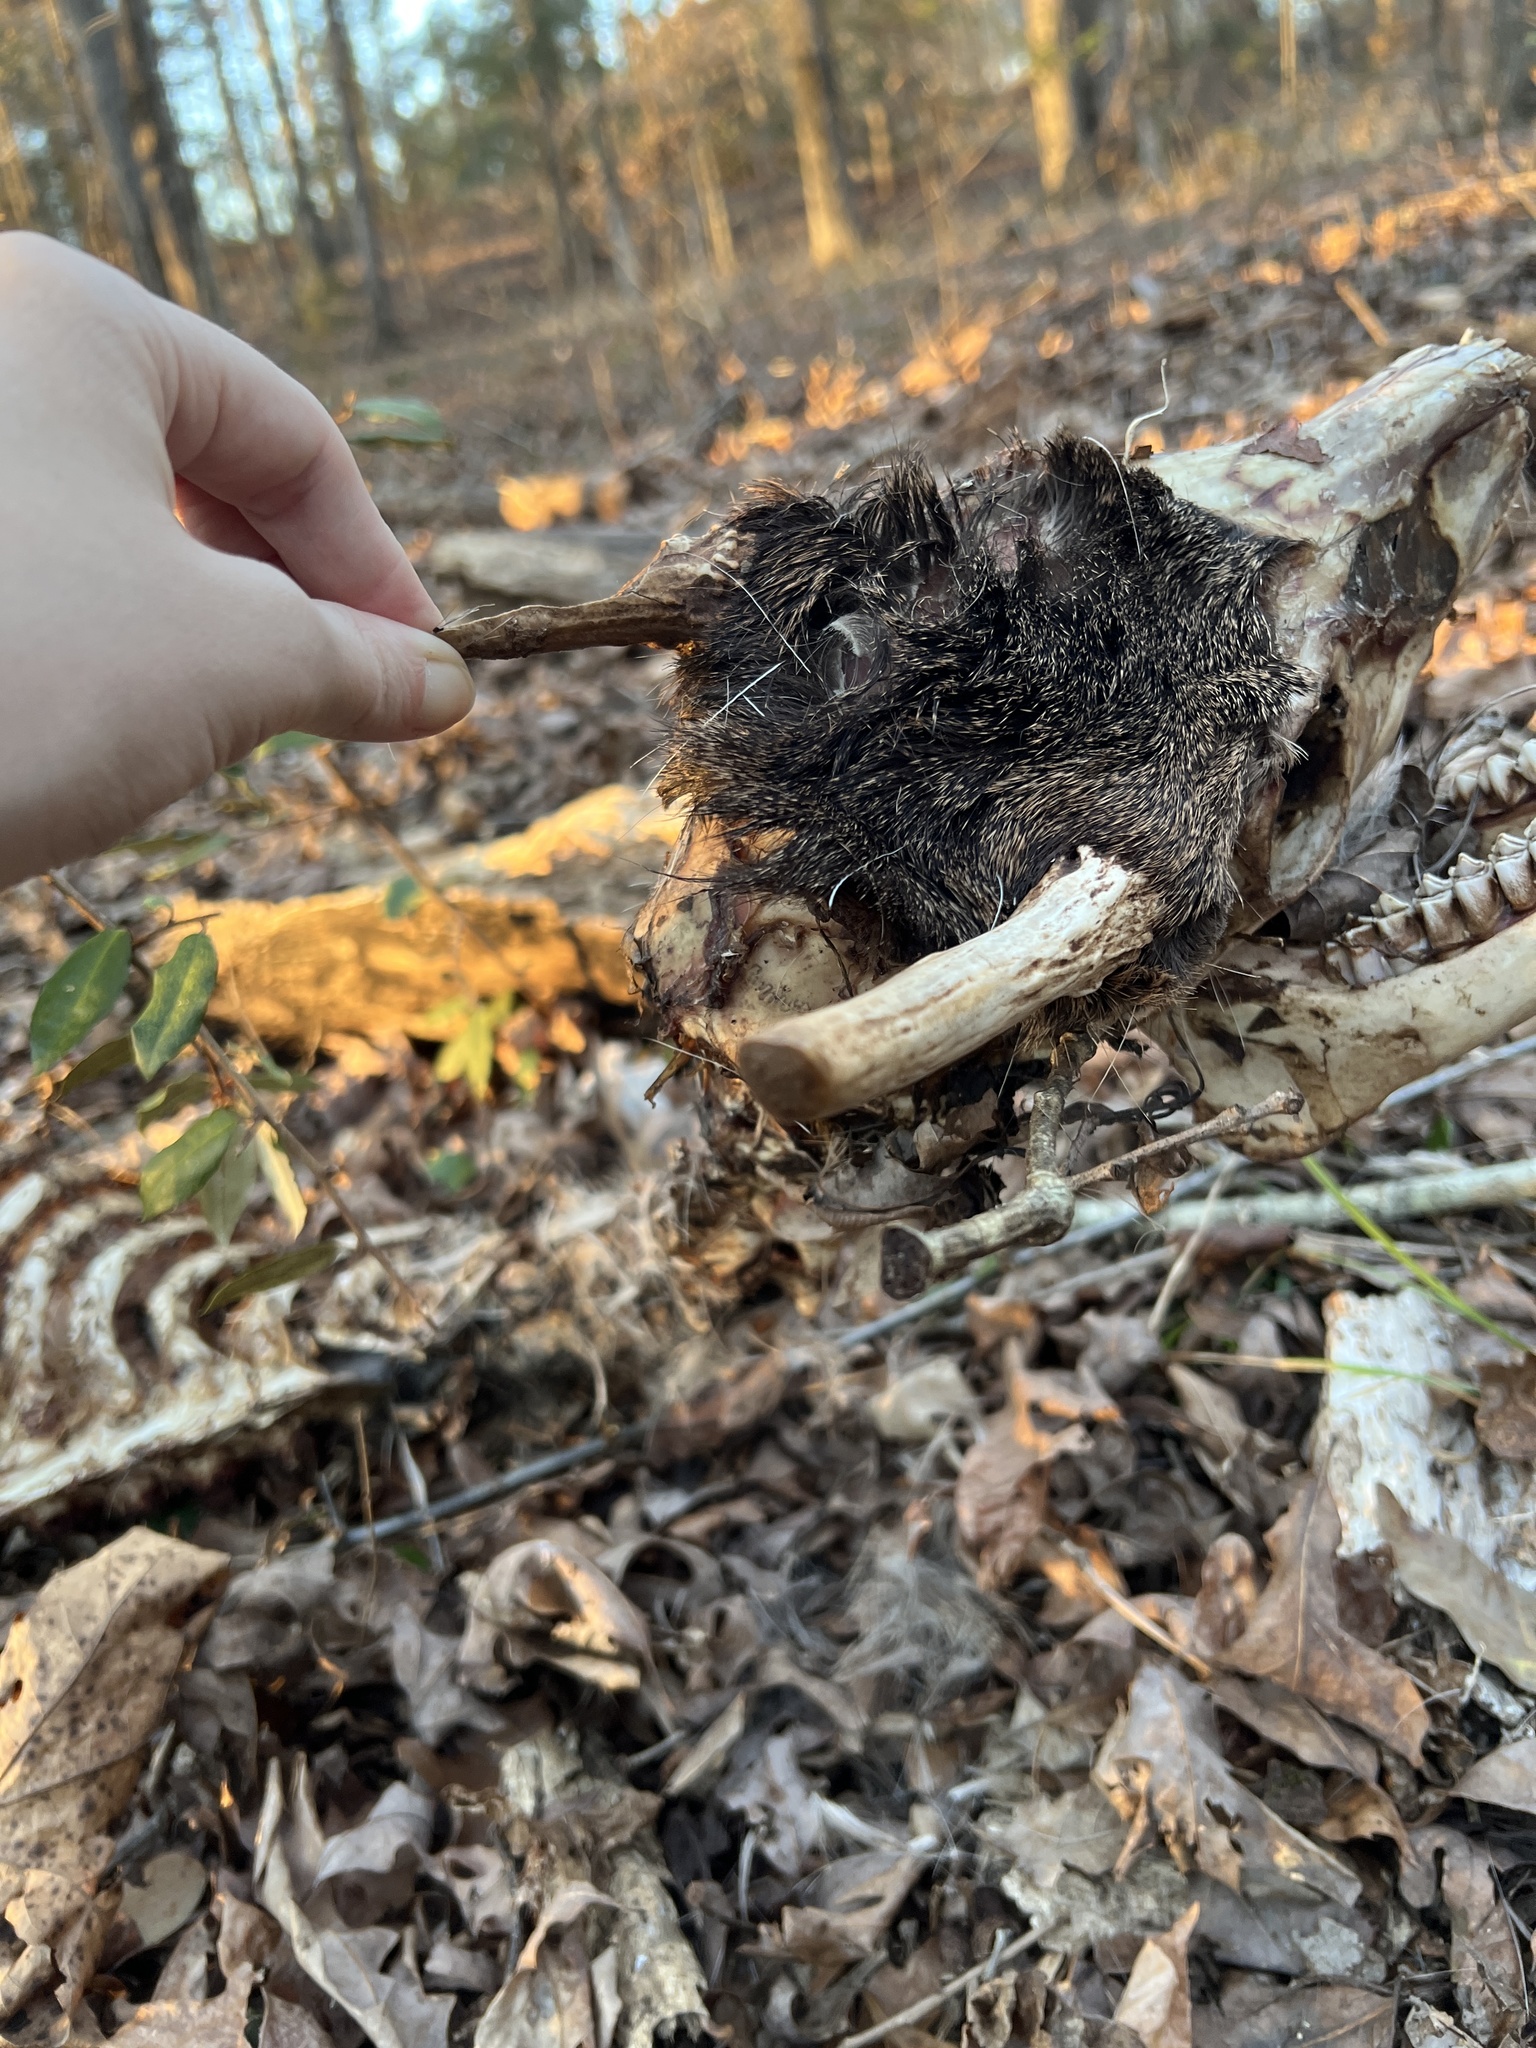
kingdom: Animalia
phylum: Chordata
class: Mammalia
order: Artiodactyla
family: Cervidae
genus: Odocoileus
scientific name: Odocoileus virginianus
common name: White-tailed deer
